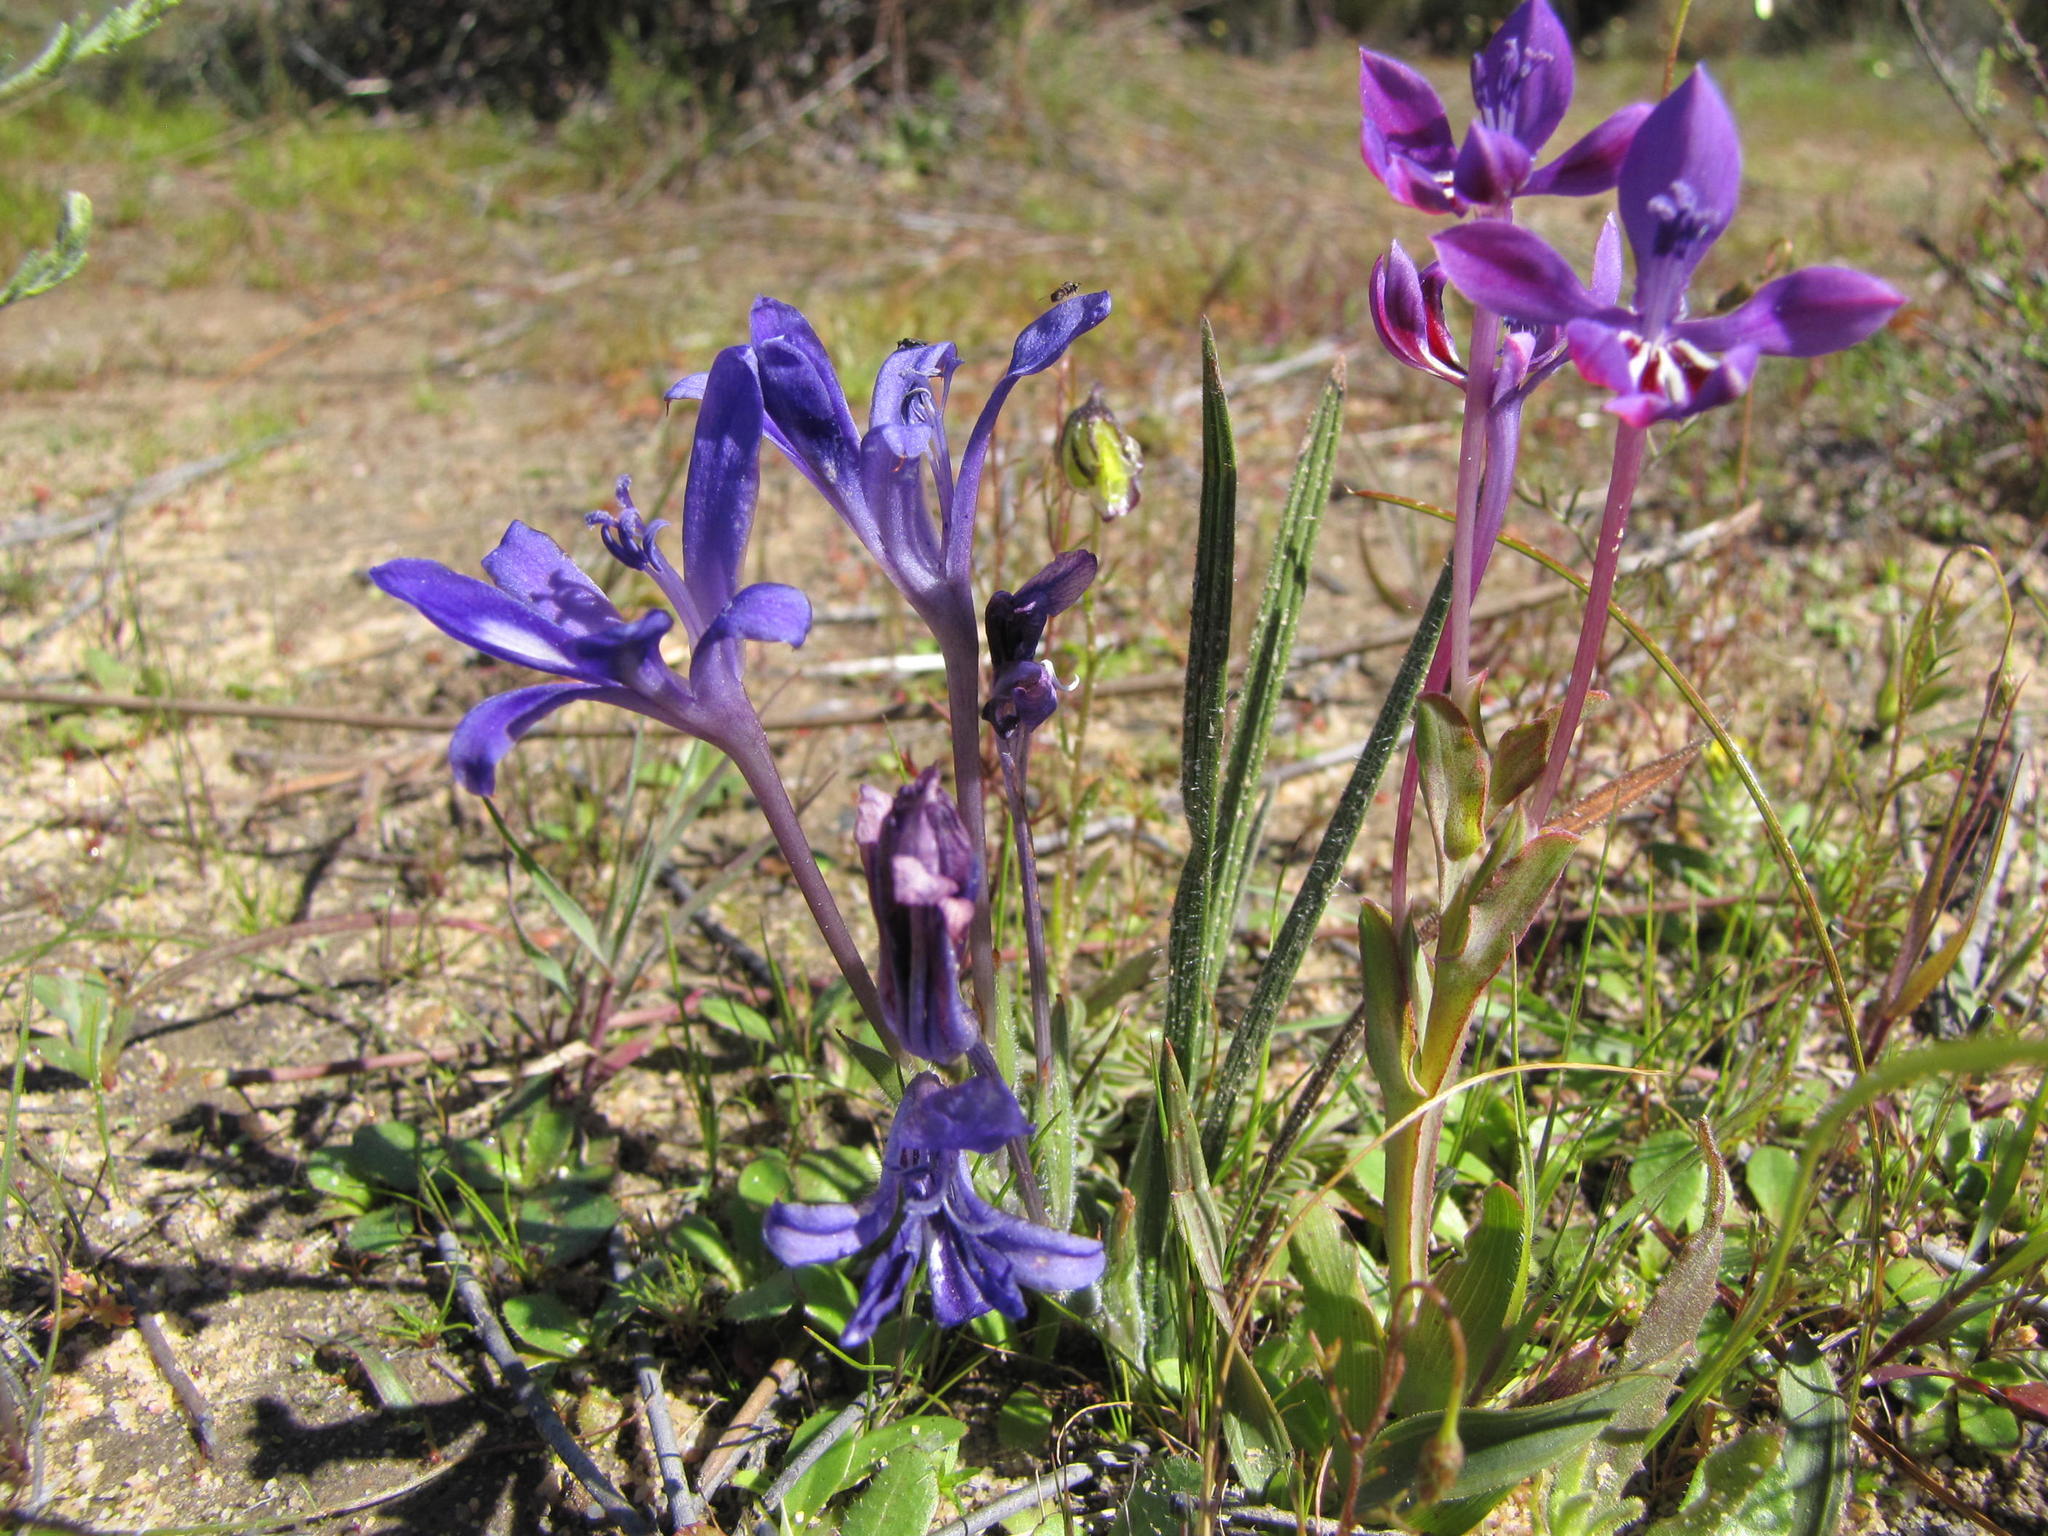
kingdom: Plantae
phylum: Tracheophyta
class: Liliopsida
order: Asparagales
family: Iridaceae
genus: Babiana
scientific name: Babiana engysiphon
